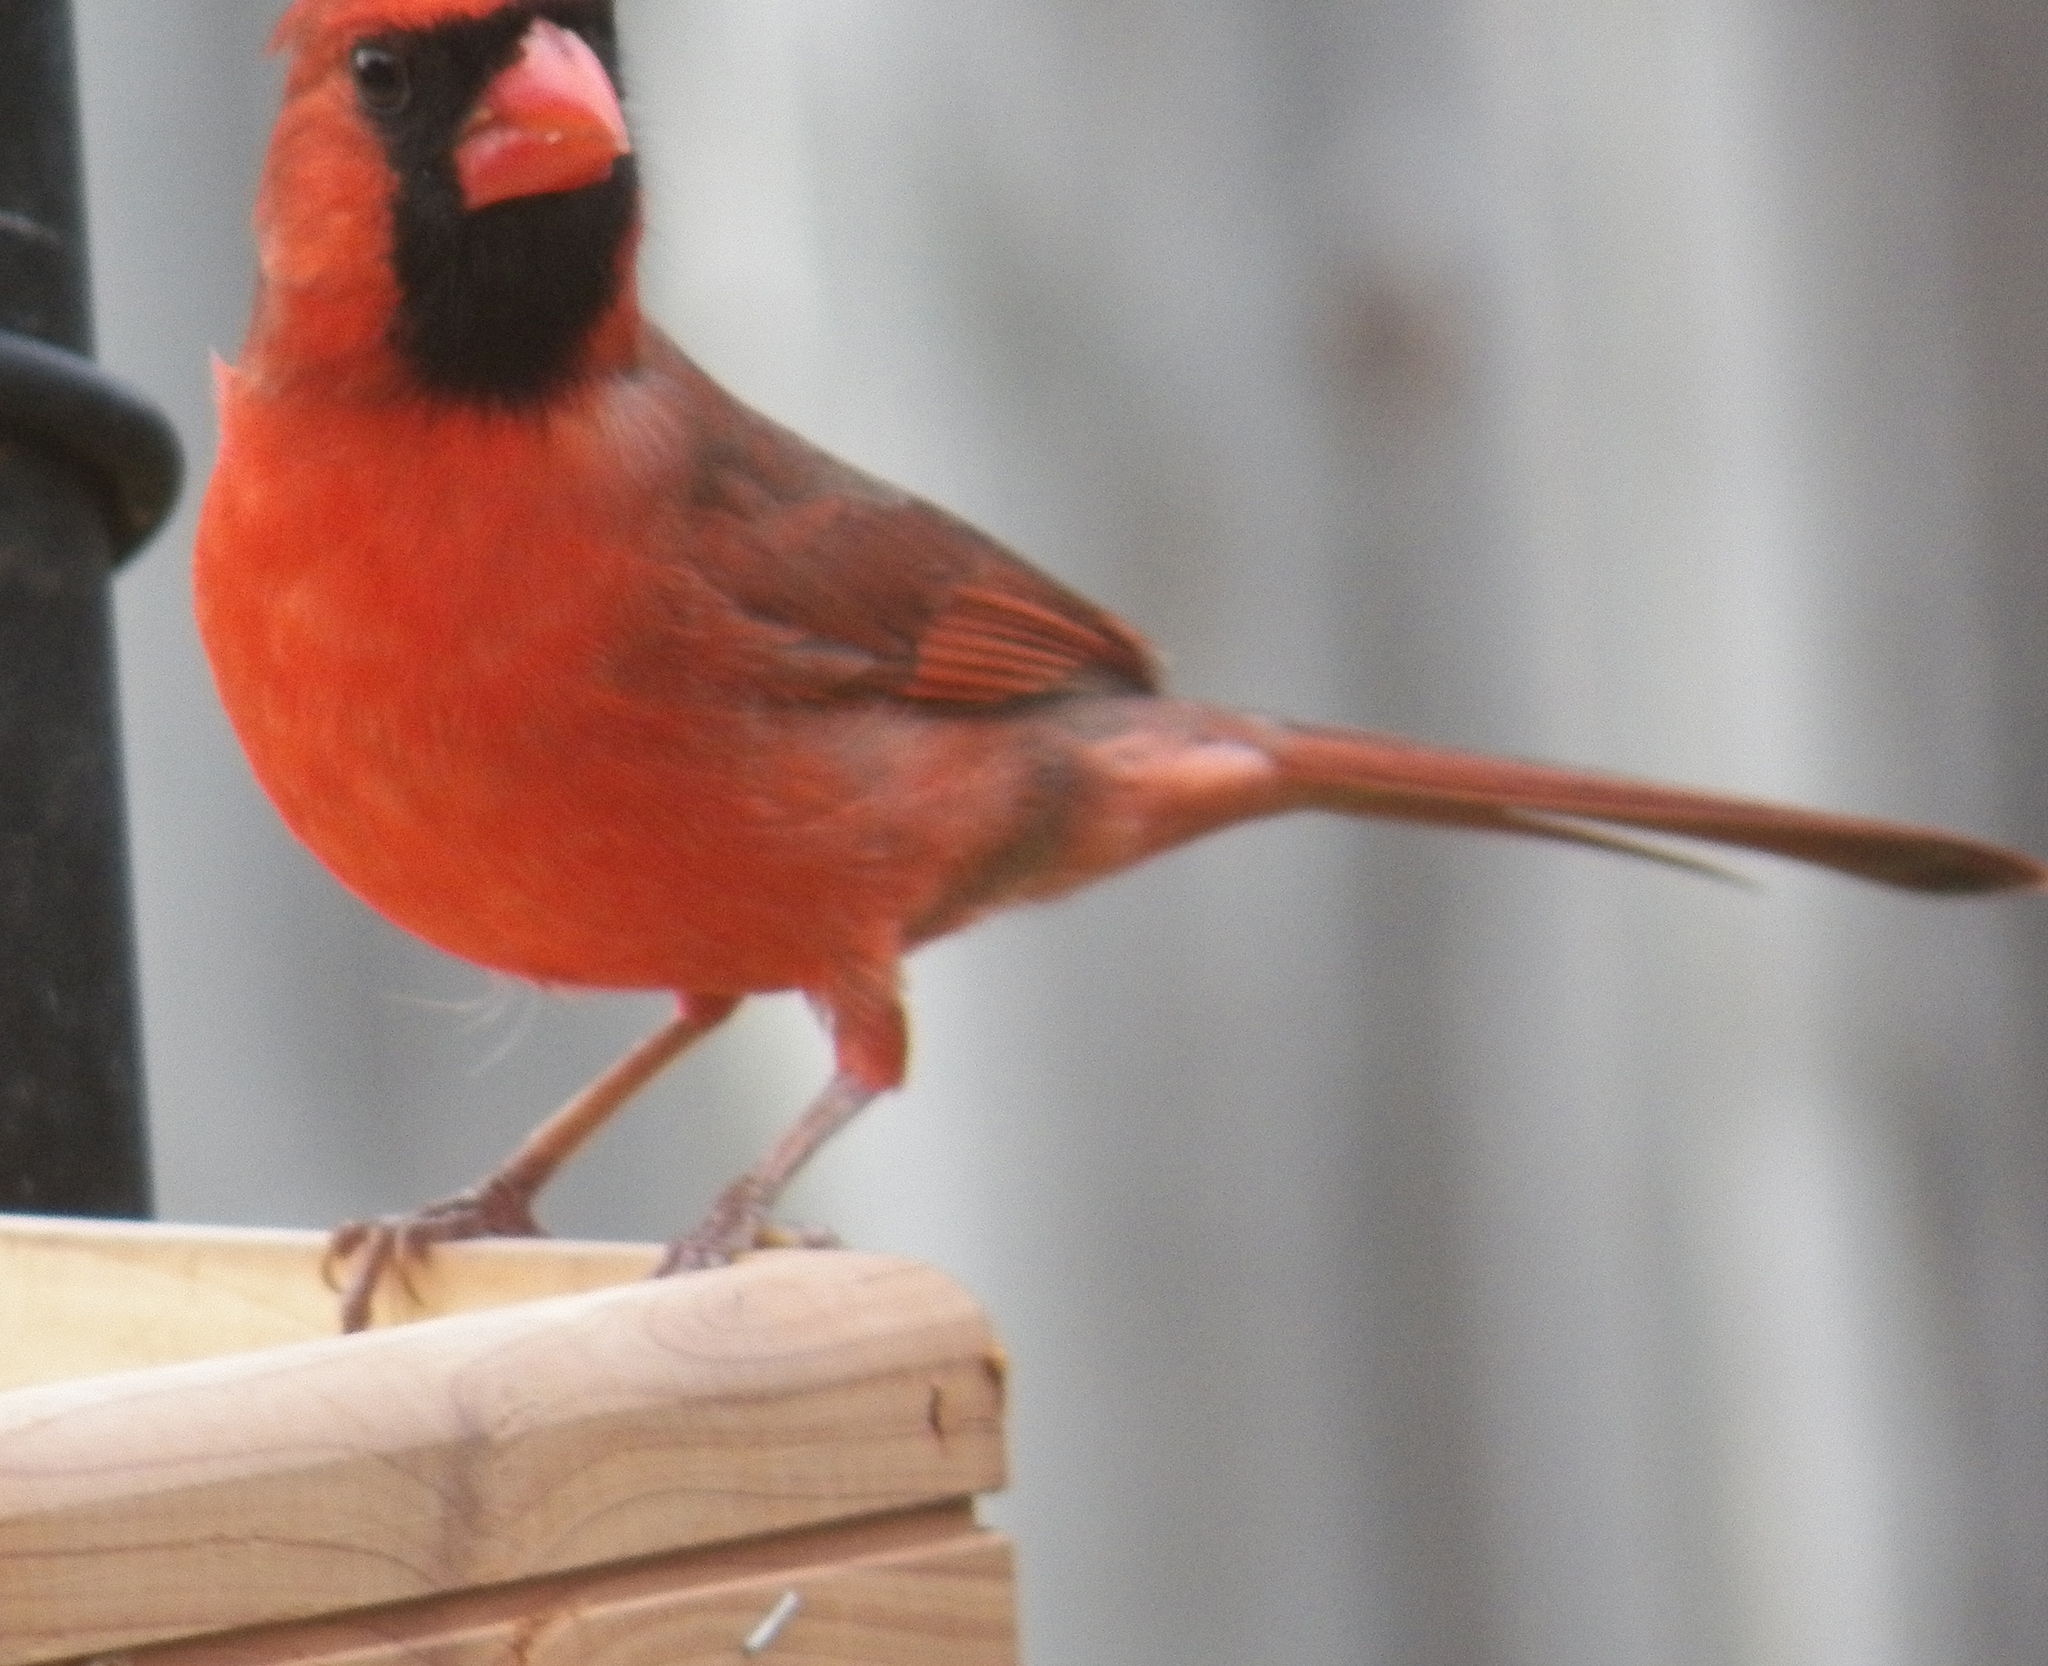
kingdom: Animalia
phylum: Chordata
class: Aves
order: Passeriformes
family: Cardinalidae
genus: Cardinalis
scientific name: Cardinalis cardinalis
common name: Northern cardinal
